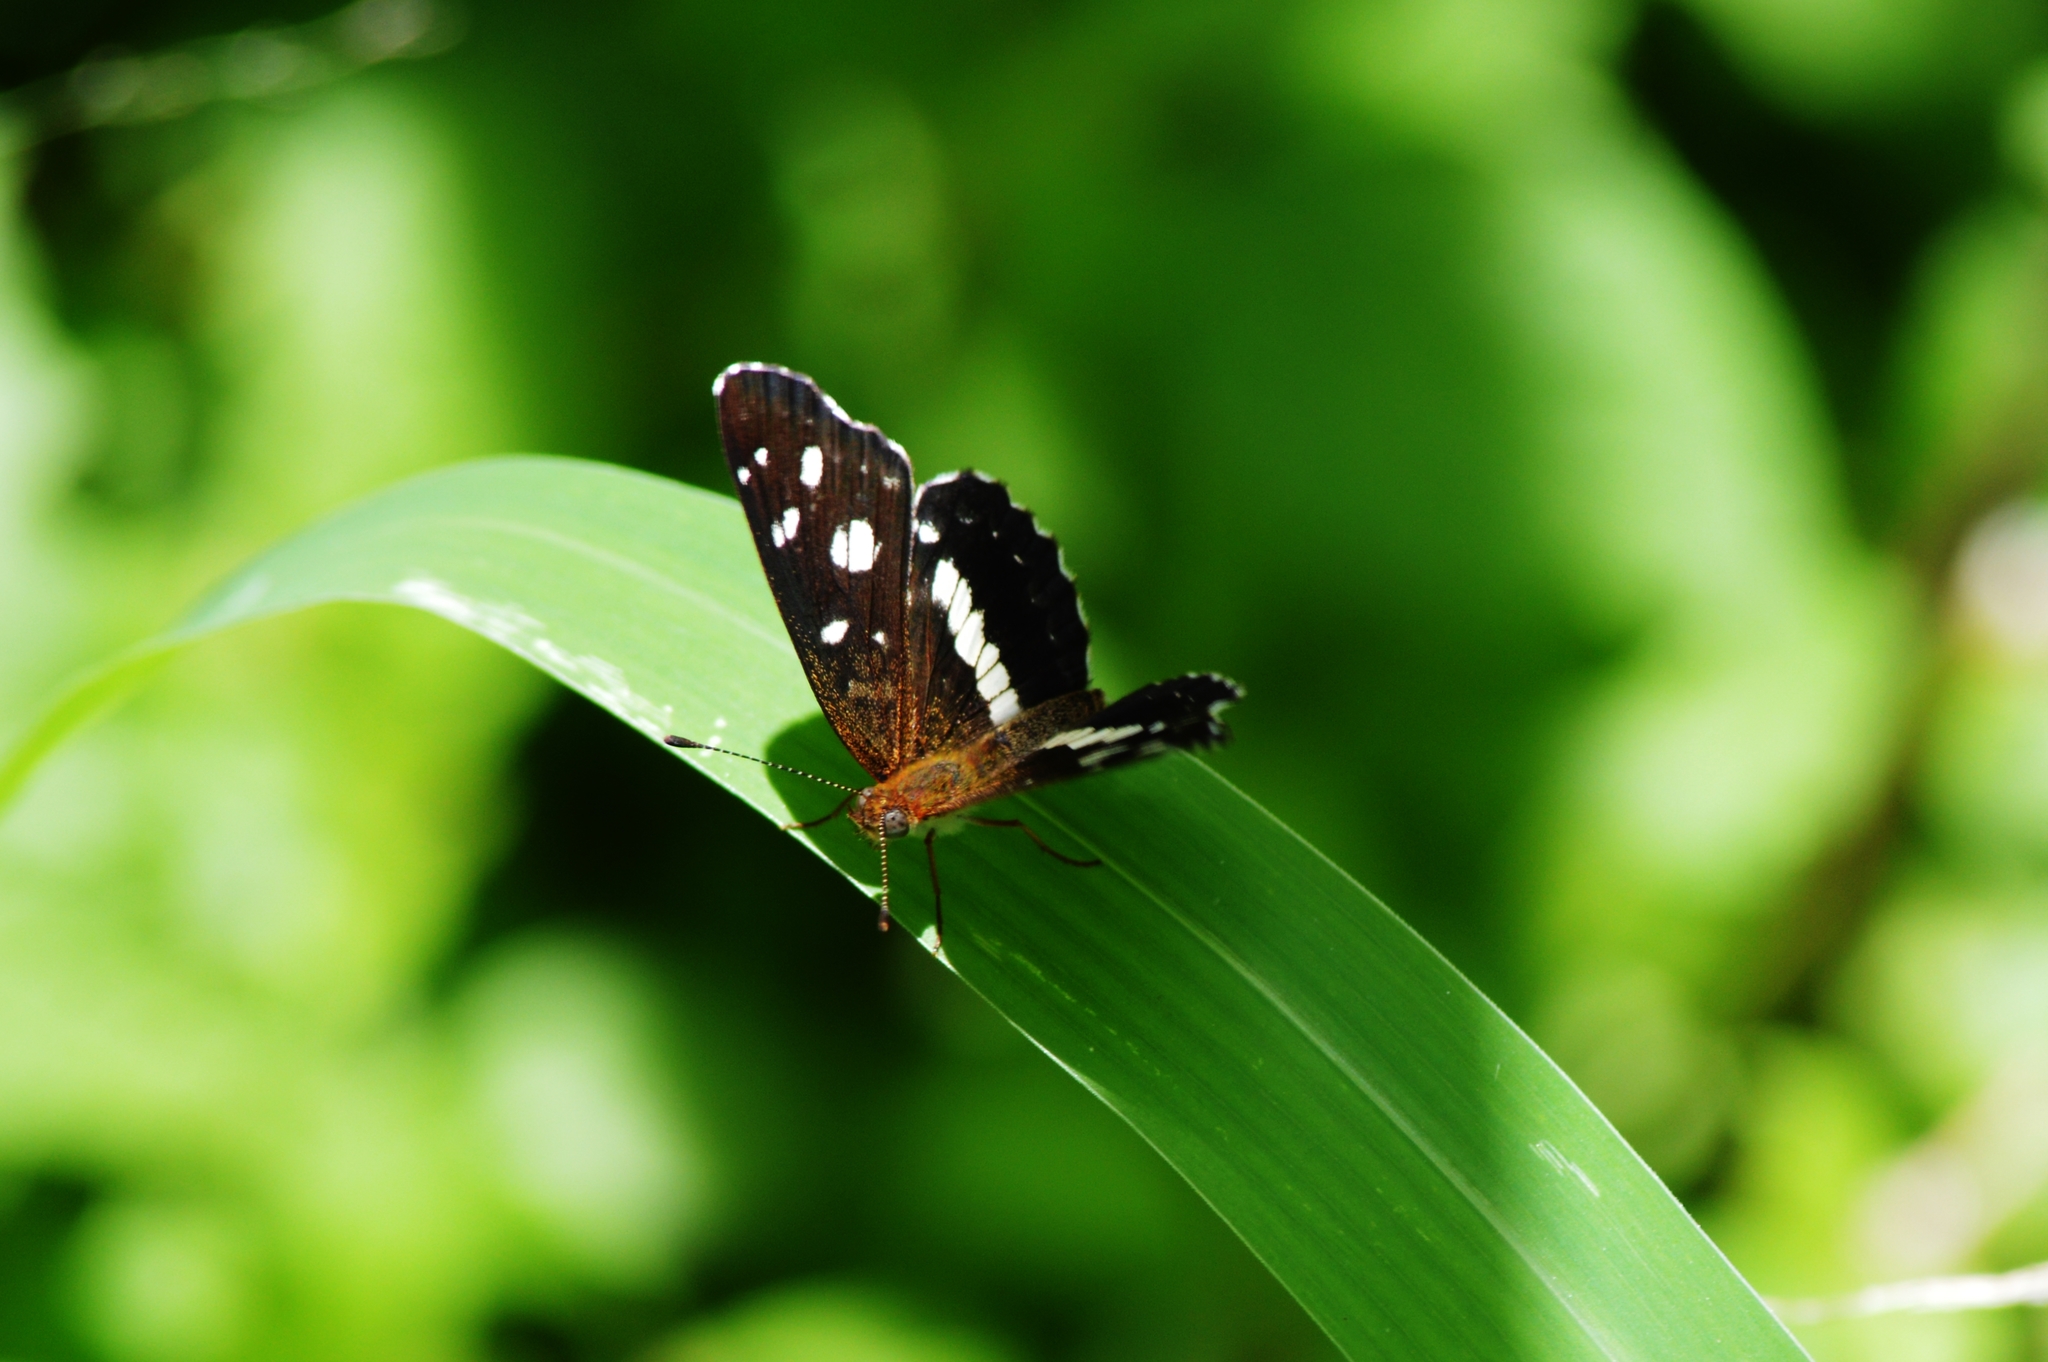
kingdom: Animalia
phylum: Arthropoda
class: Insecta
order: Lepidoptera
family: Nymphalidae
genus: Ortilia
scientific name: Ortilia ithra
